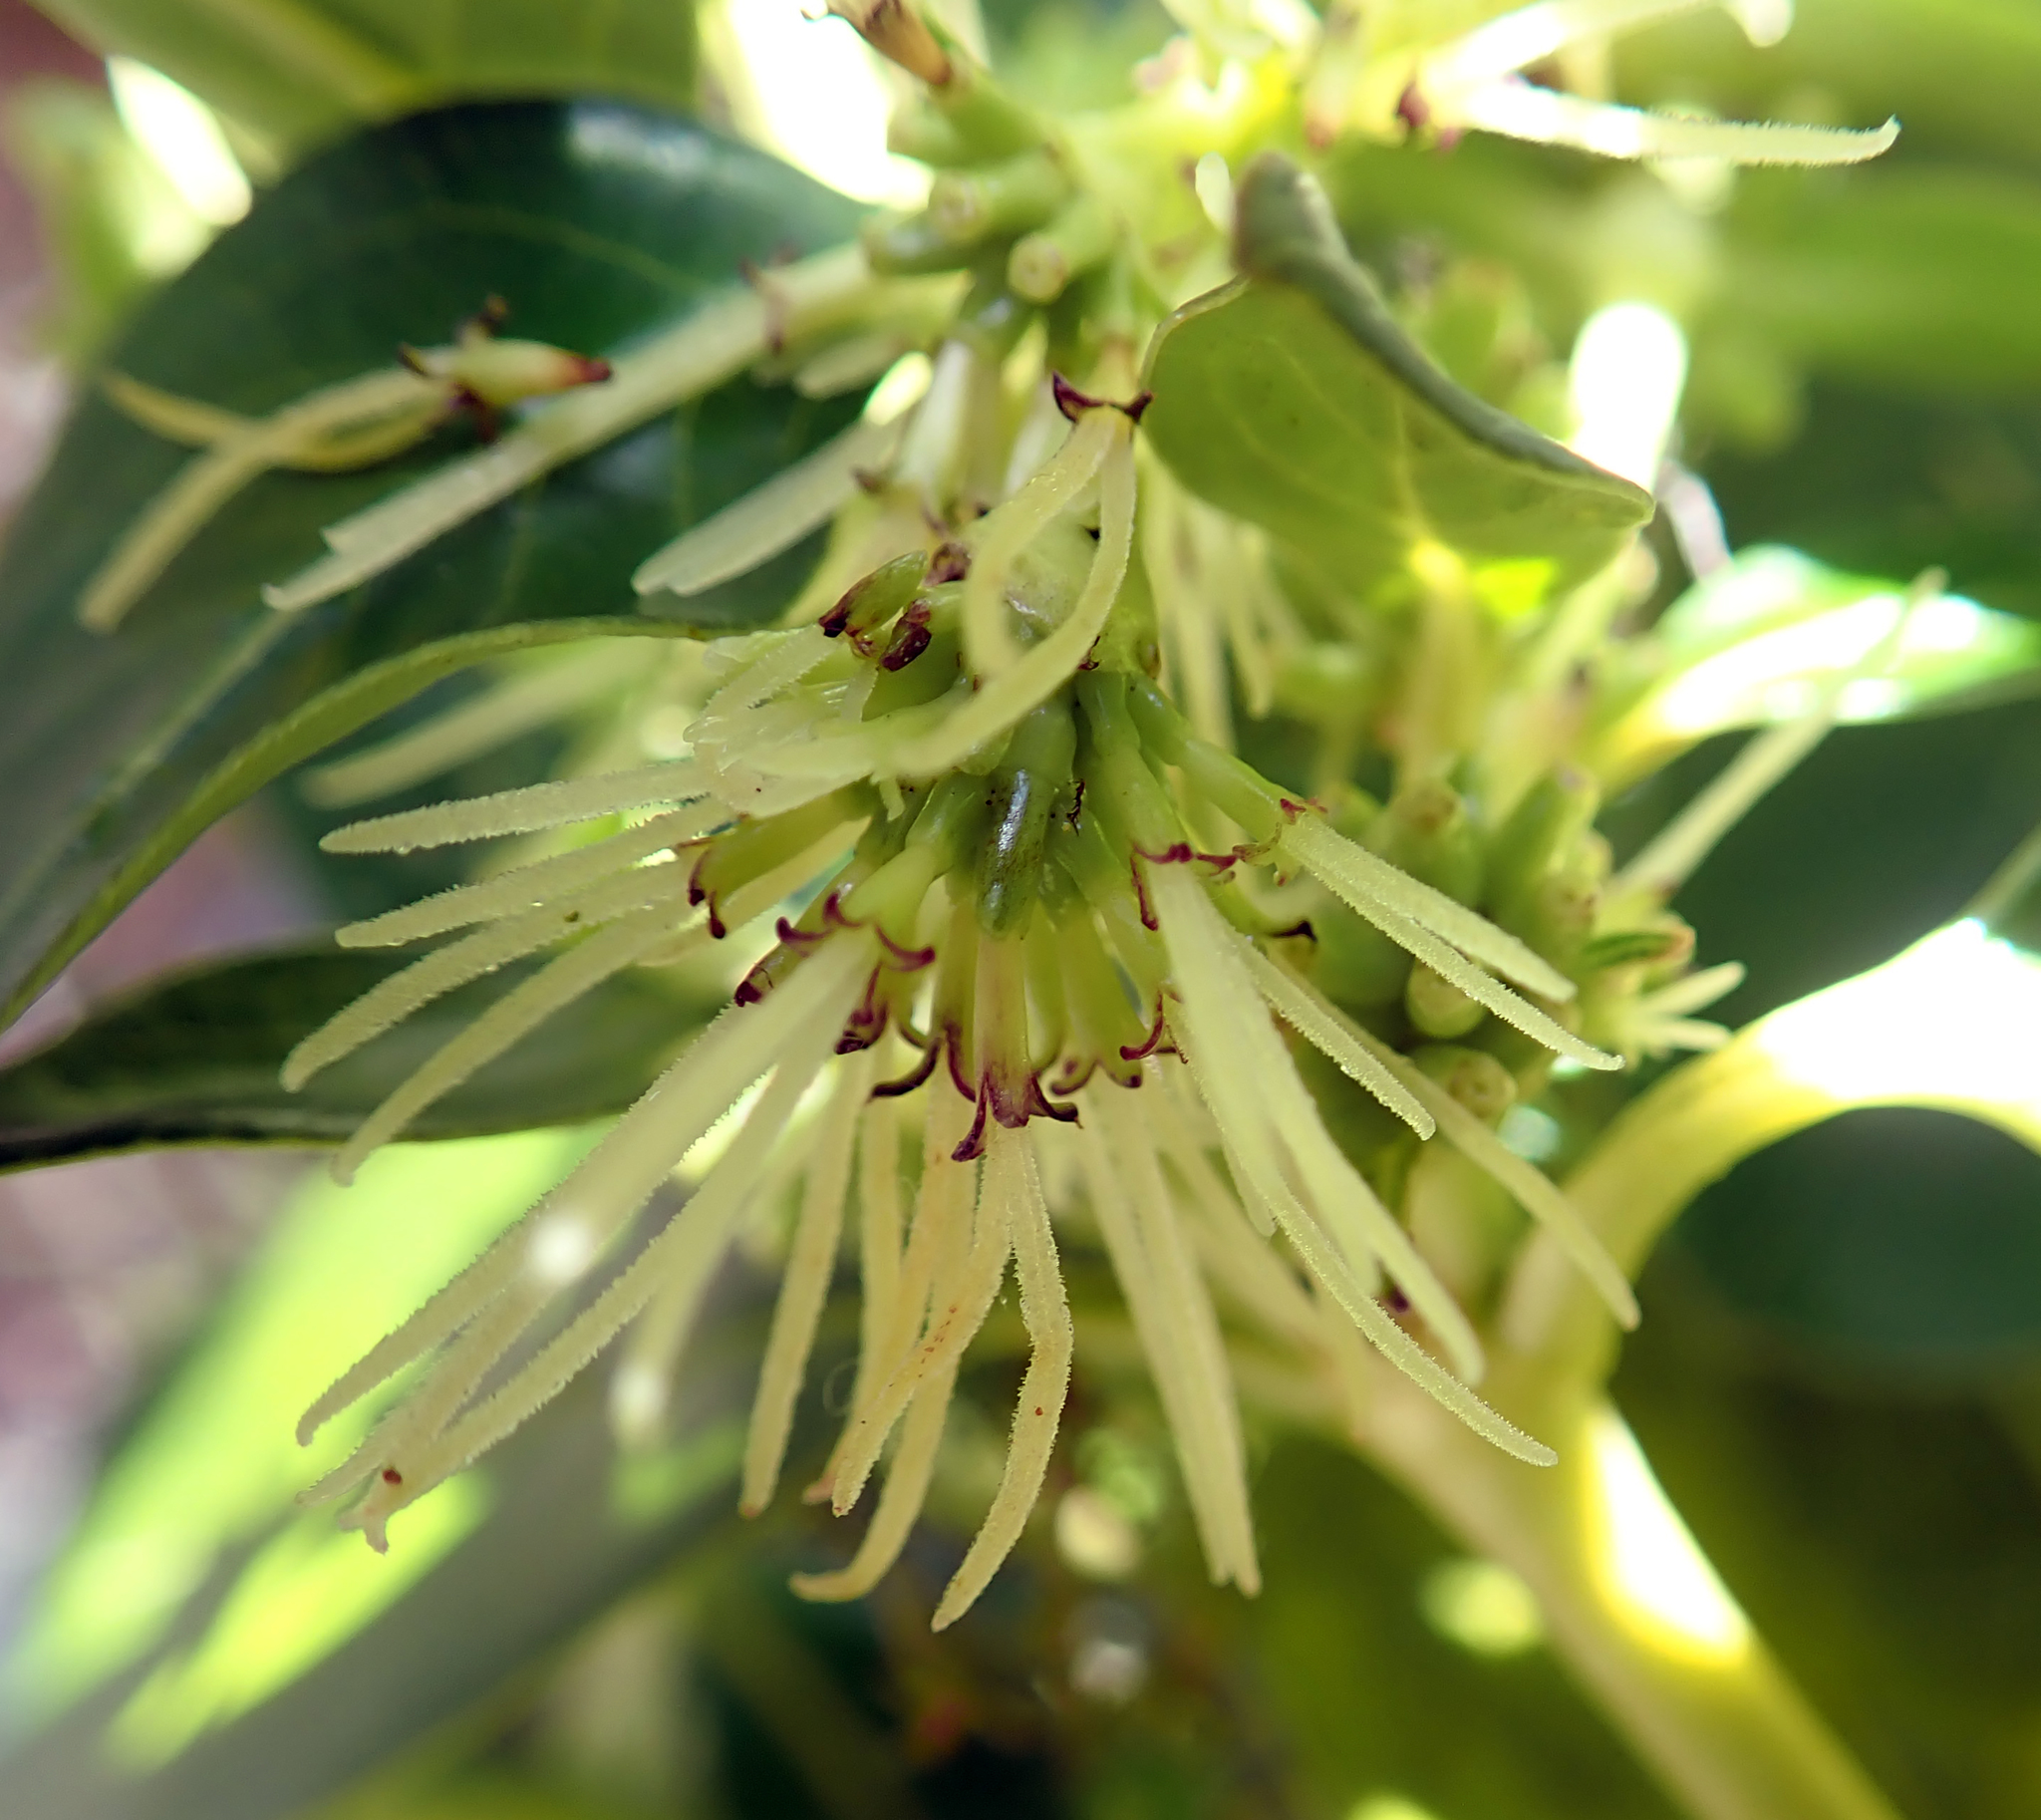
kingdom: Plantae
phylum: Tracheophyta
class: Magnoliopsida
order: Gentianales
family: Rubiaceae
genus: Coprosma
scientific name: Coprosma robusta
